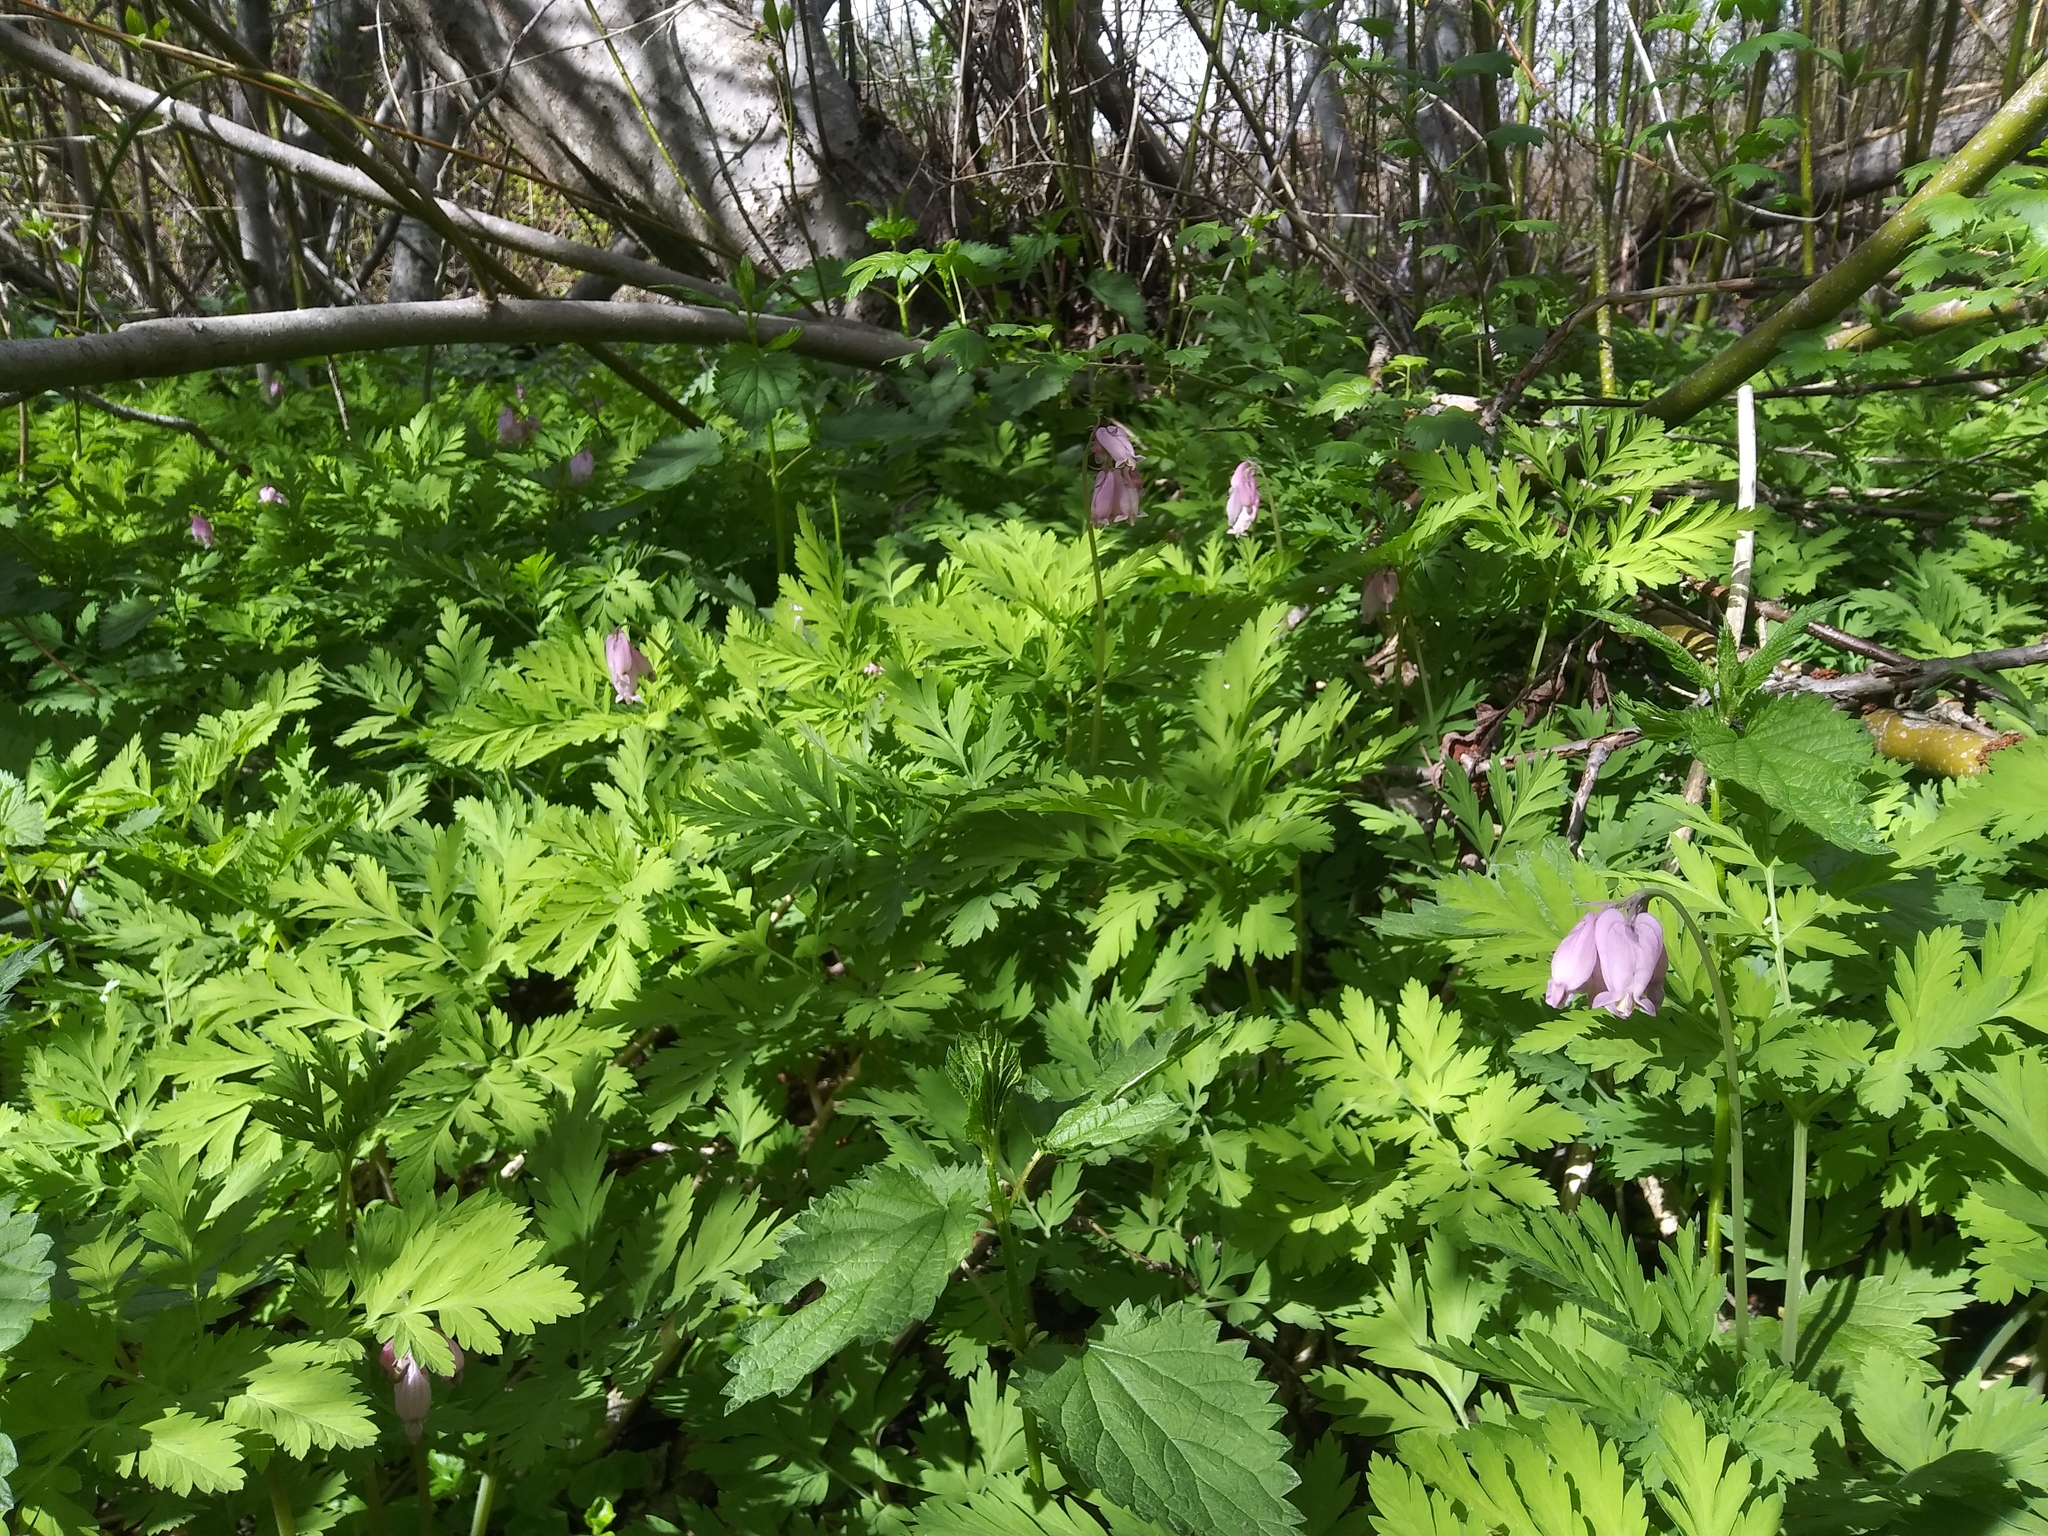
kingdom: Plantae
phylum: Tracheophyta
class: Magnoliopsida
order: Ranunculales
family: Papaveraceae
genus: Dicentra
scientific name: Dicentra formosa
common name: Bleeding-heart
